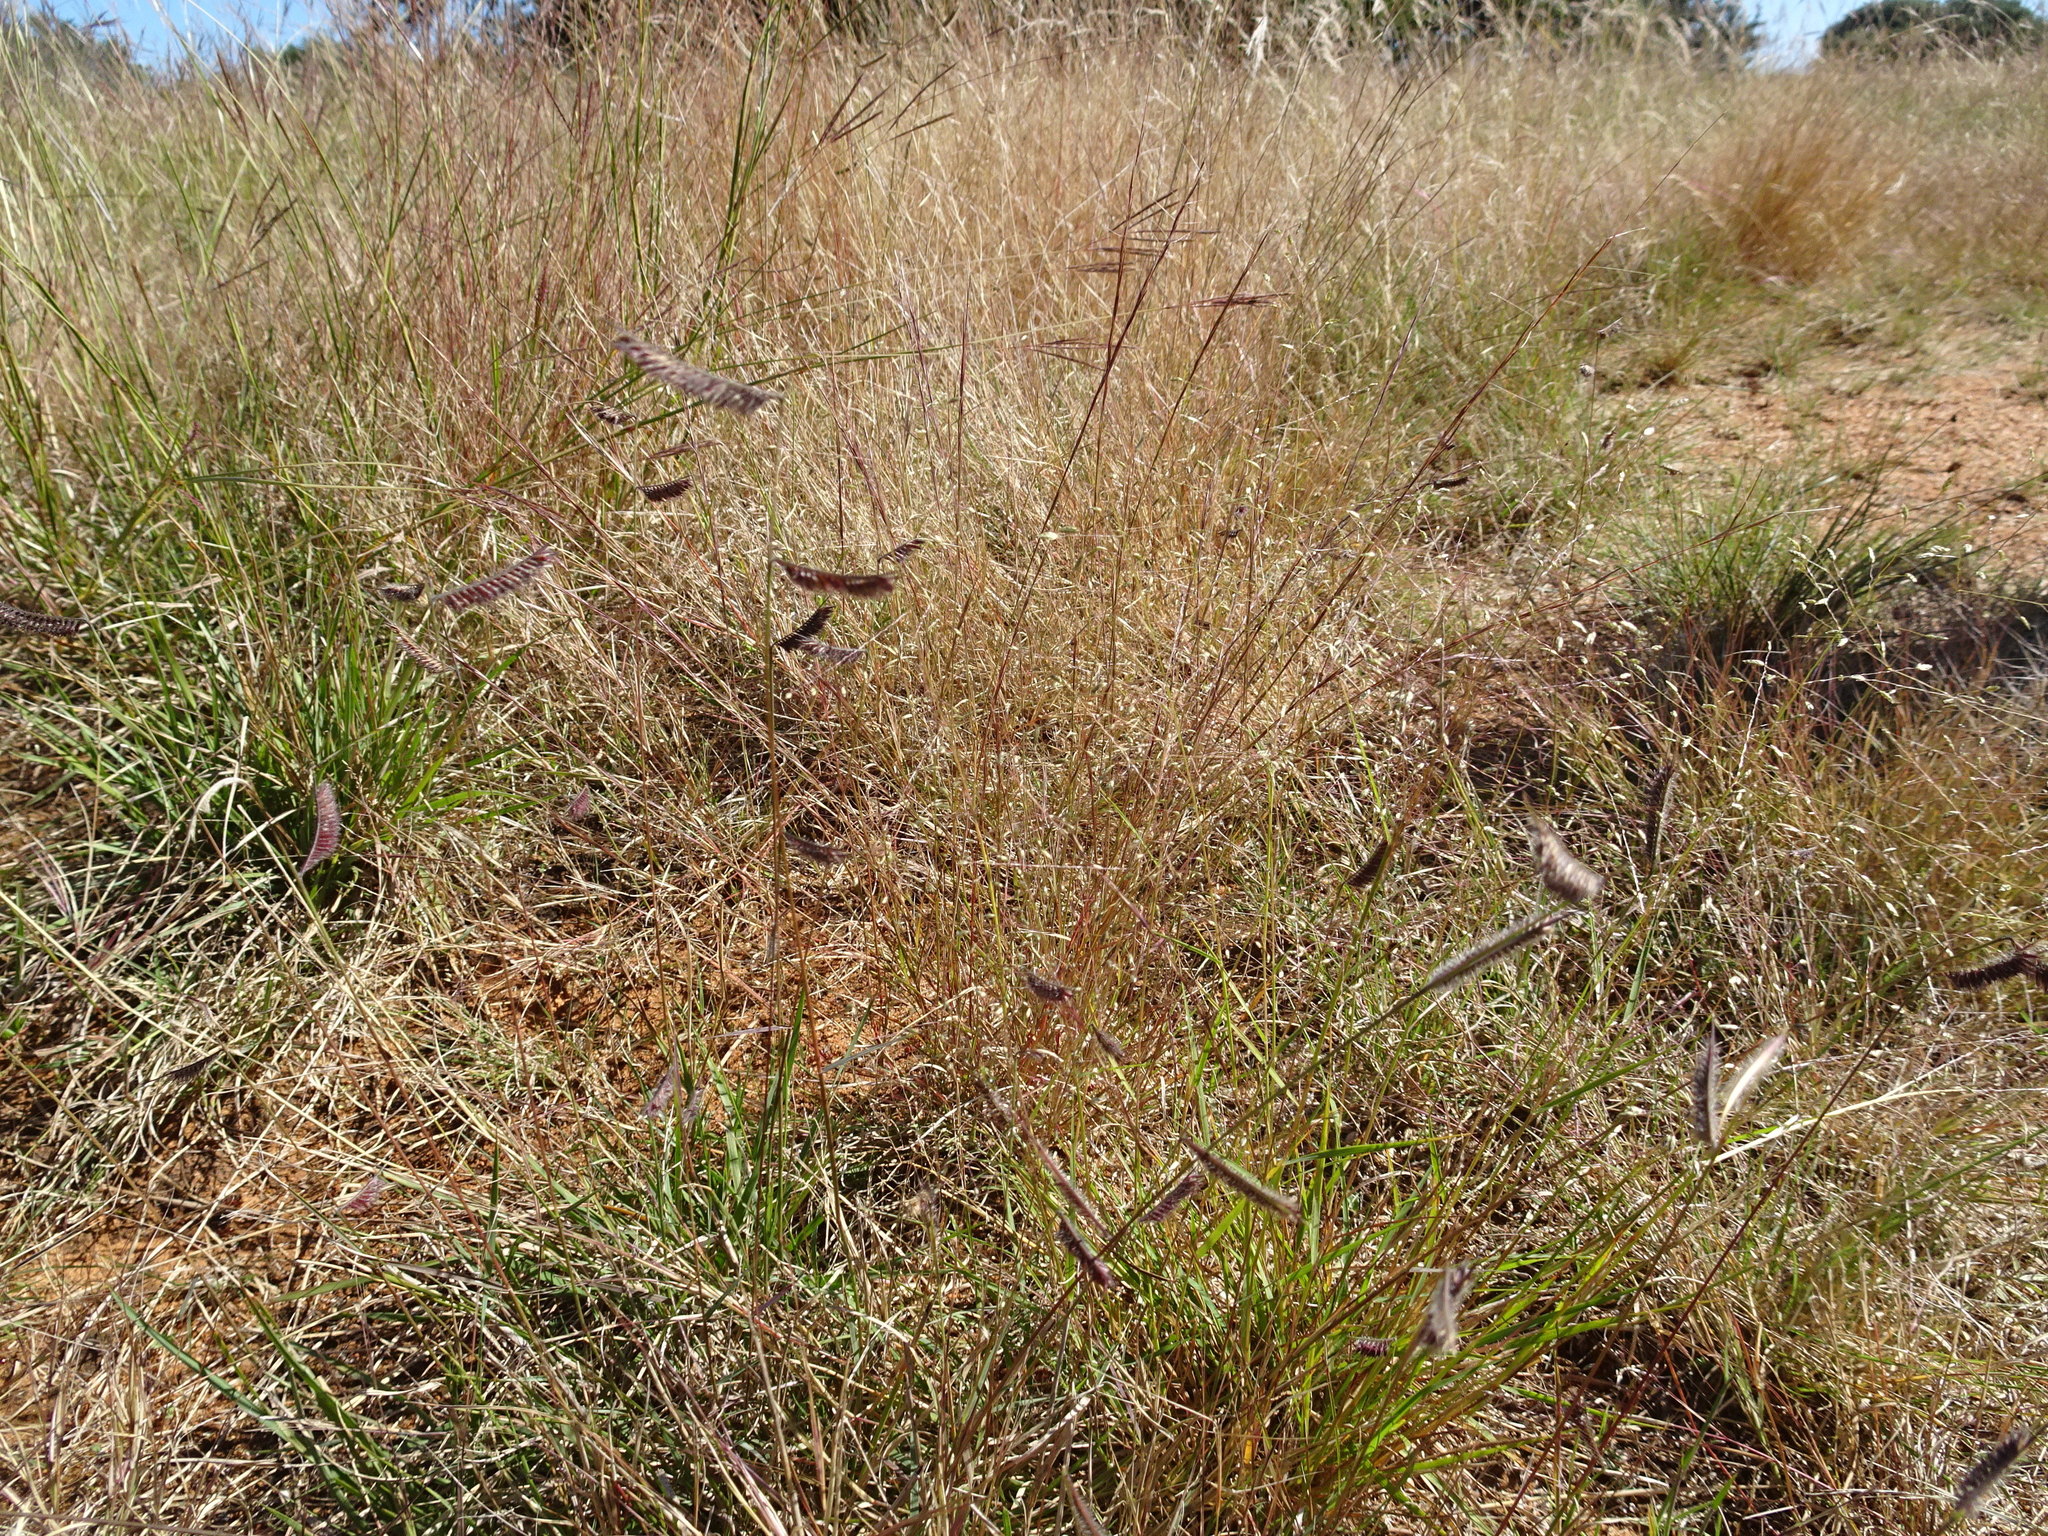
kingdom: Plantae
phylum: Tracheophyta
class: Liliopsida
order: Poales
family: Poaceae
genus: Bouteloua
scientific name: Bouteloua hirsuta
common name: Hairy grama
